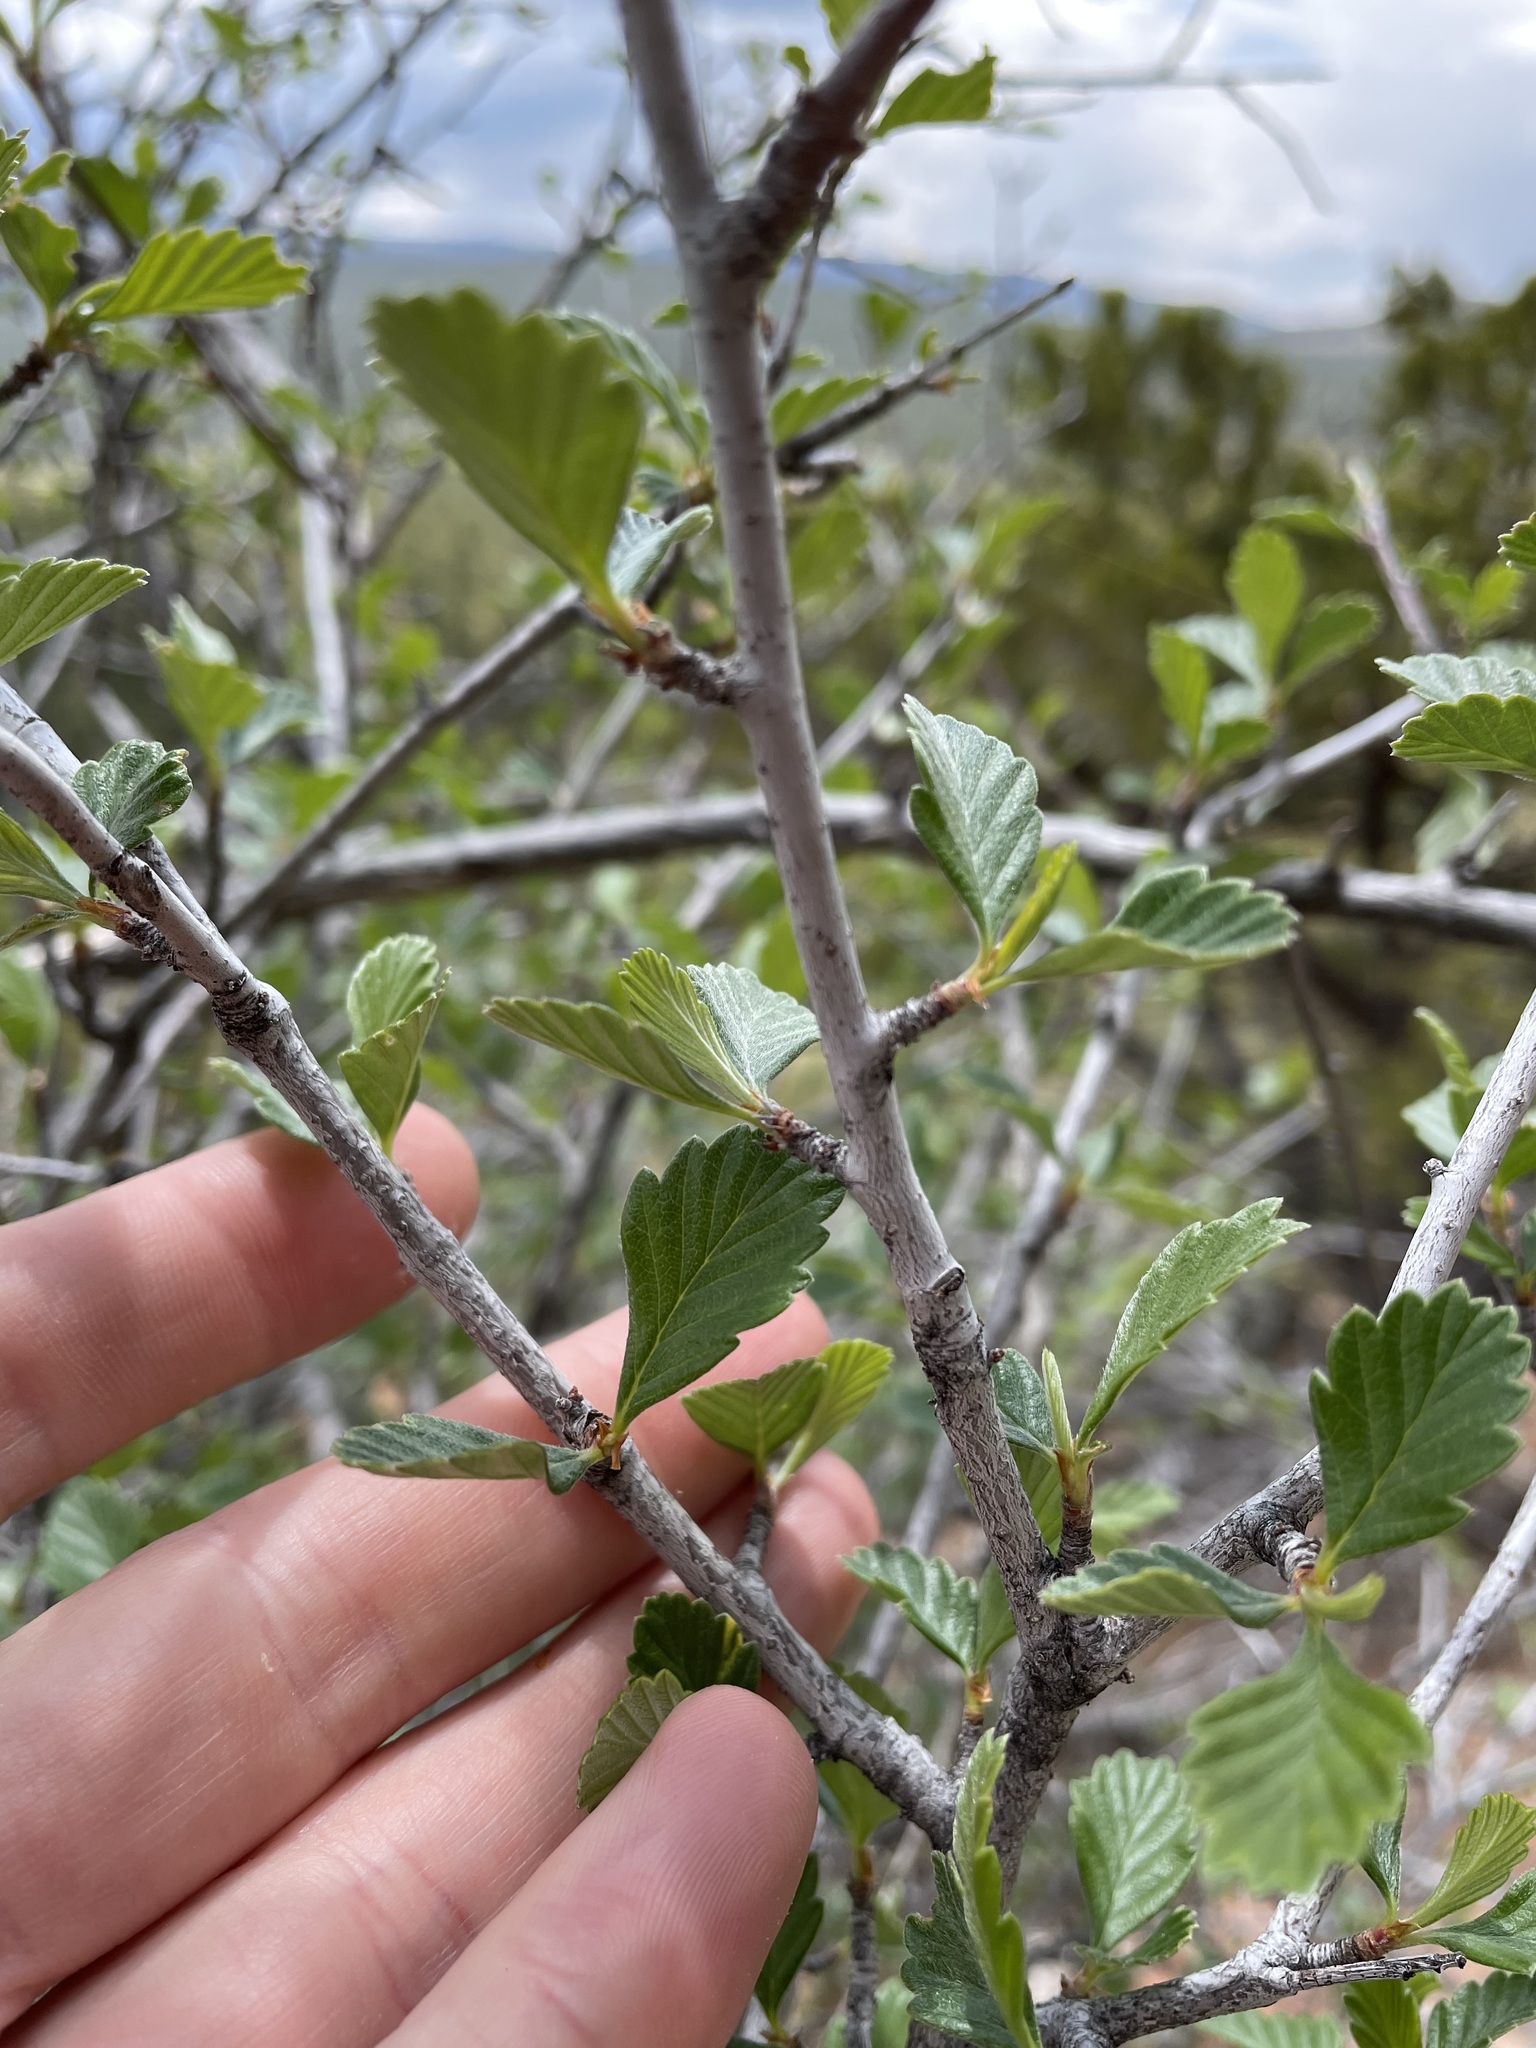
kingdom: Plantae
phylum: Tracheophyta
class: Magnoliopsida
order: Rosales
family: Rosaceae
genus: Cercocarpus
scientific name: Cercocarpus montanus
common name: Alder-leaf cercocarpus
